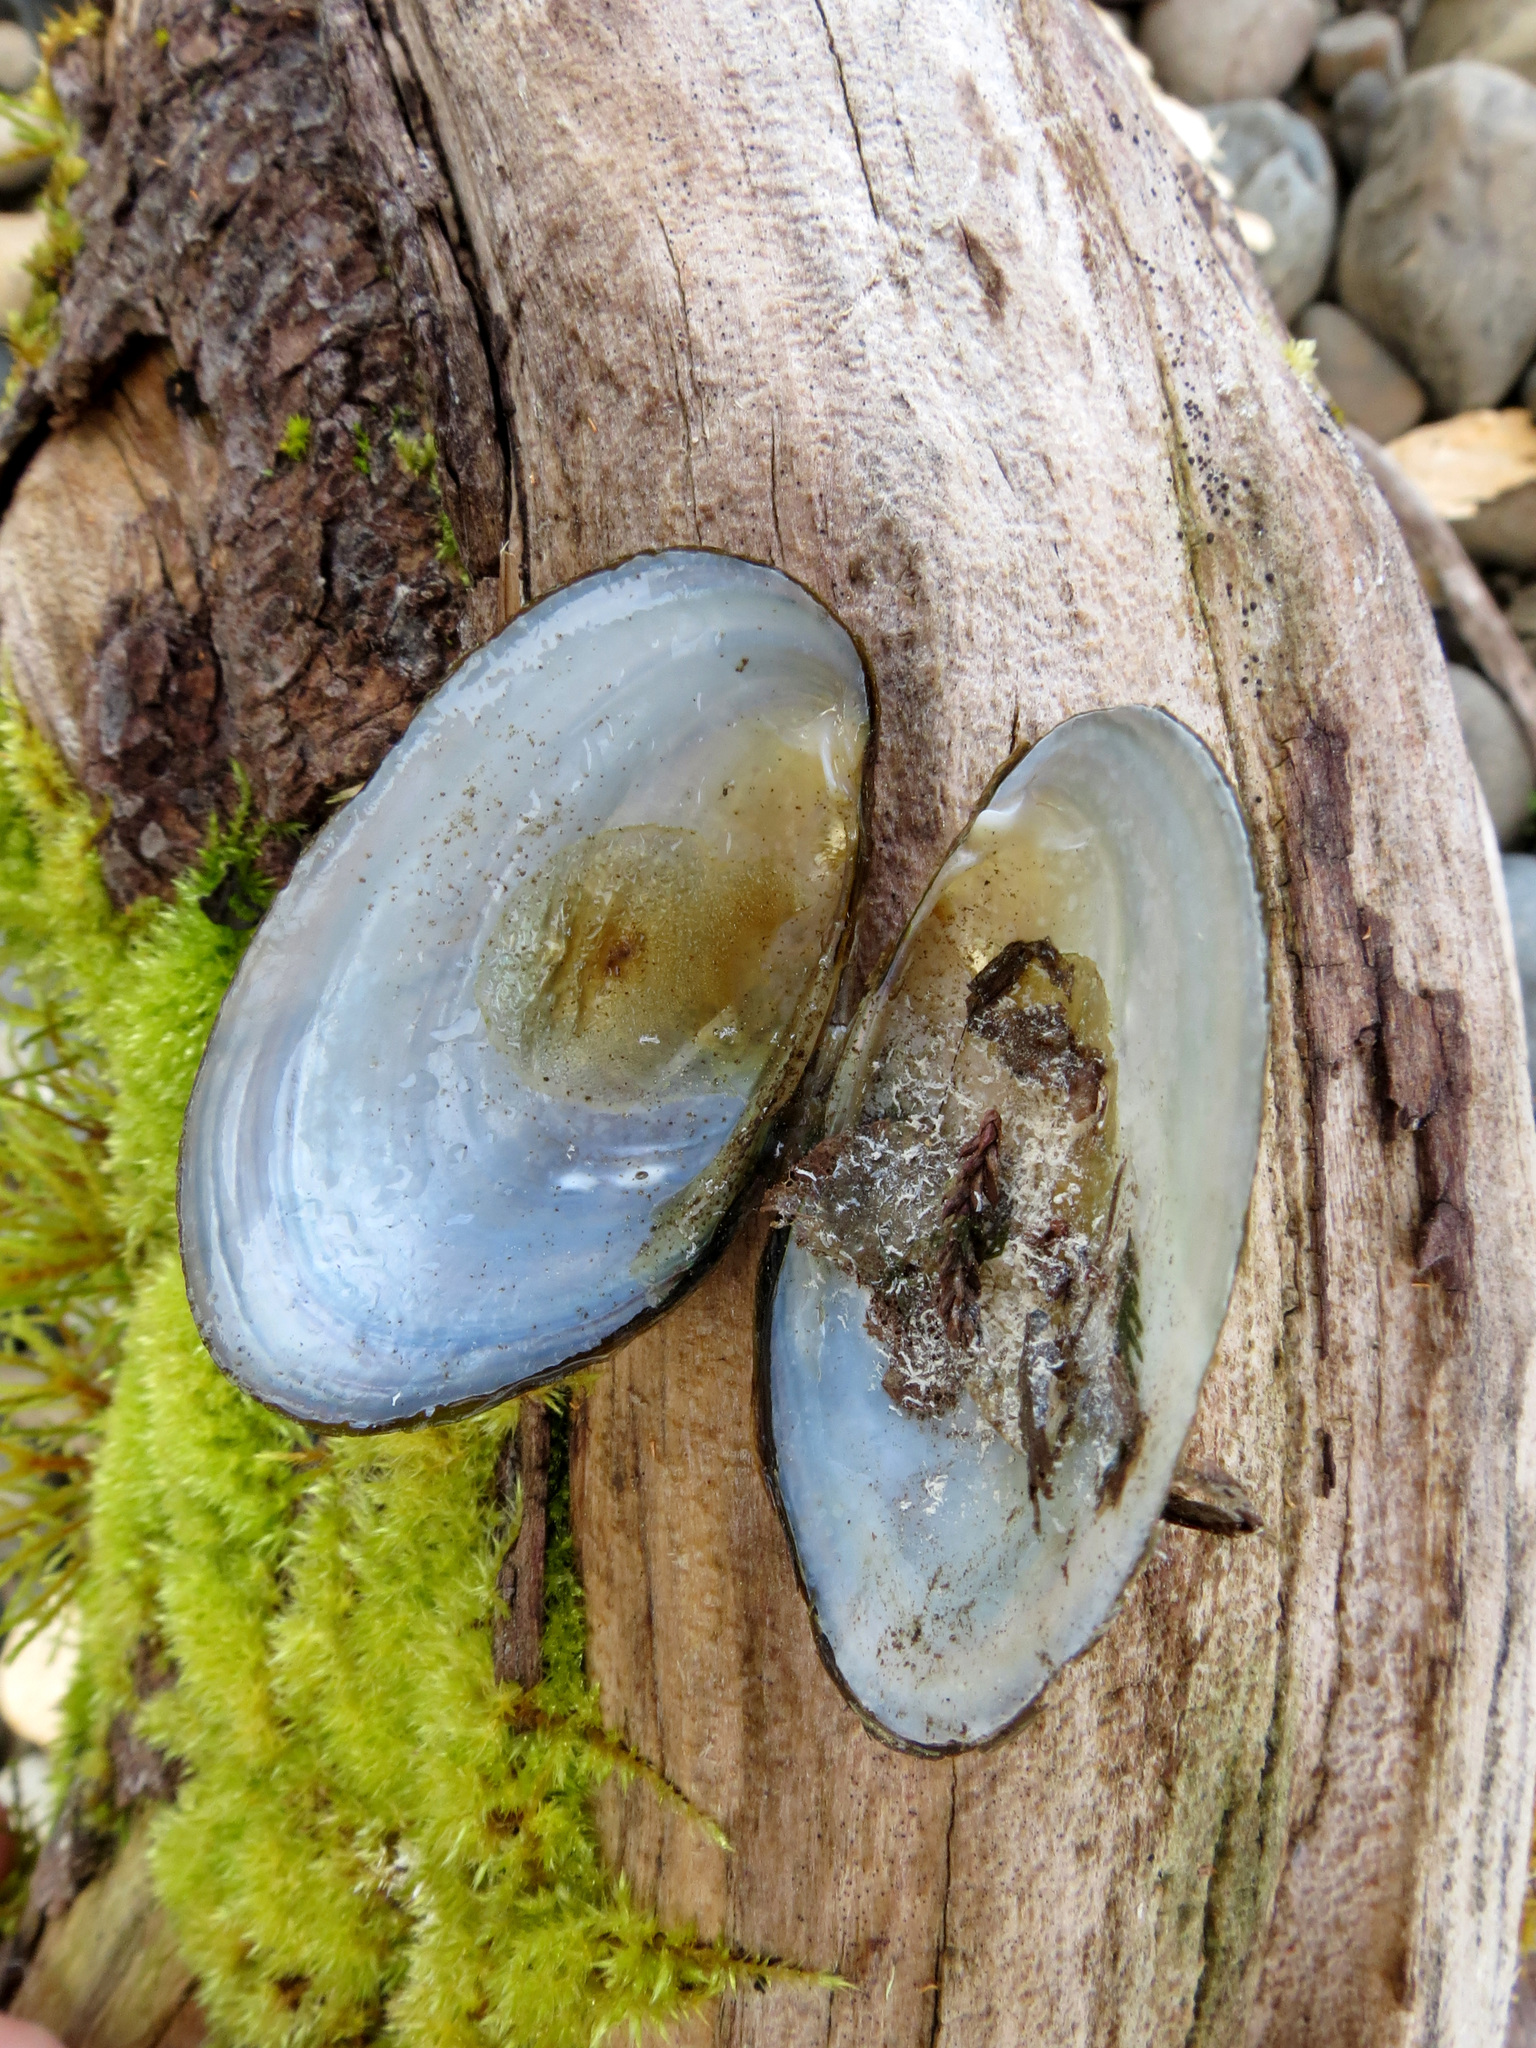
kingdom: Animalia
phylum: Mollusca
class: Bivalvia
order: Unionida
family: Hyriidae
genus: Echyridella
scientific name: Echyridella menziesii
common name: New zealand freshwater mussel
